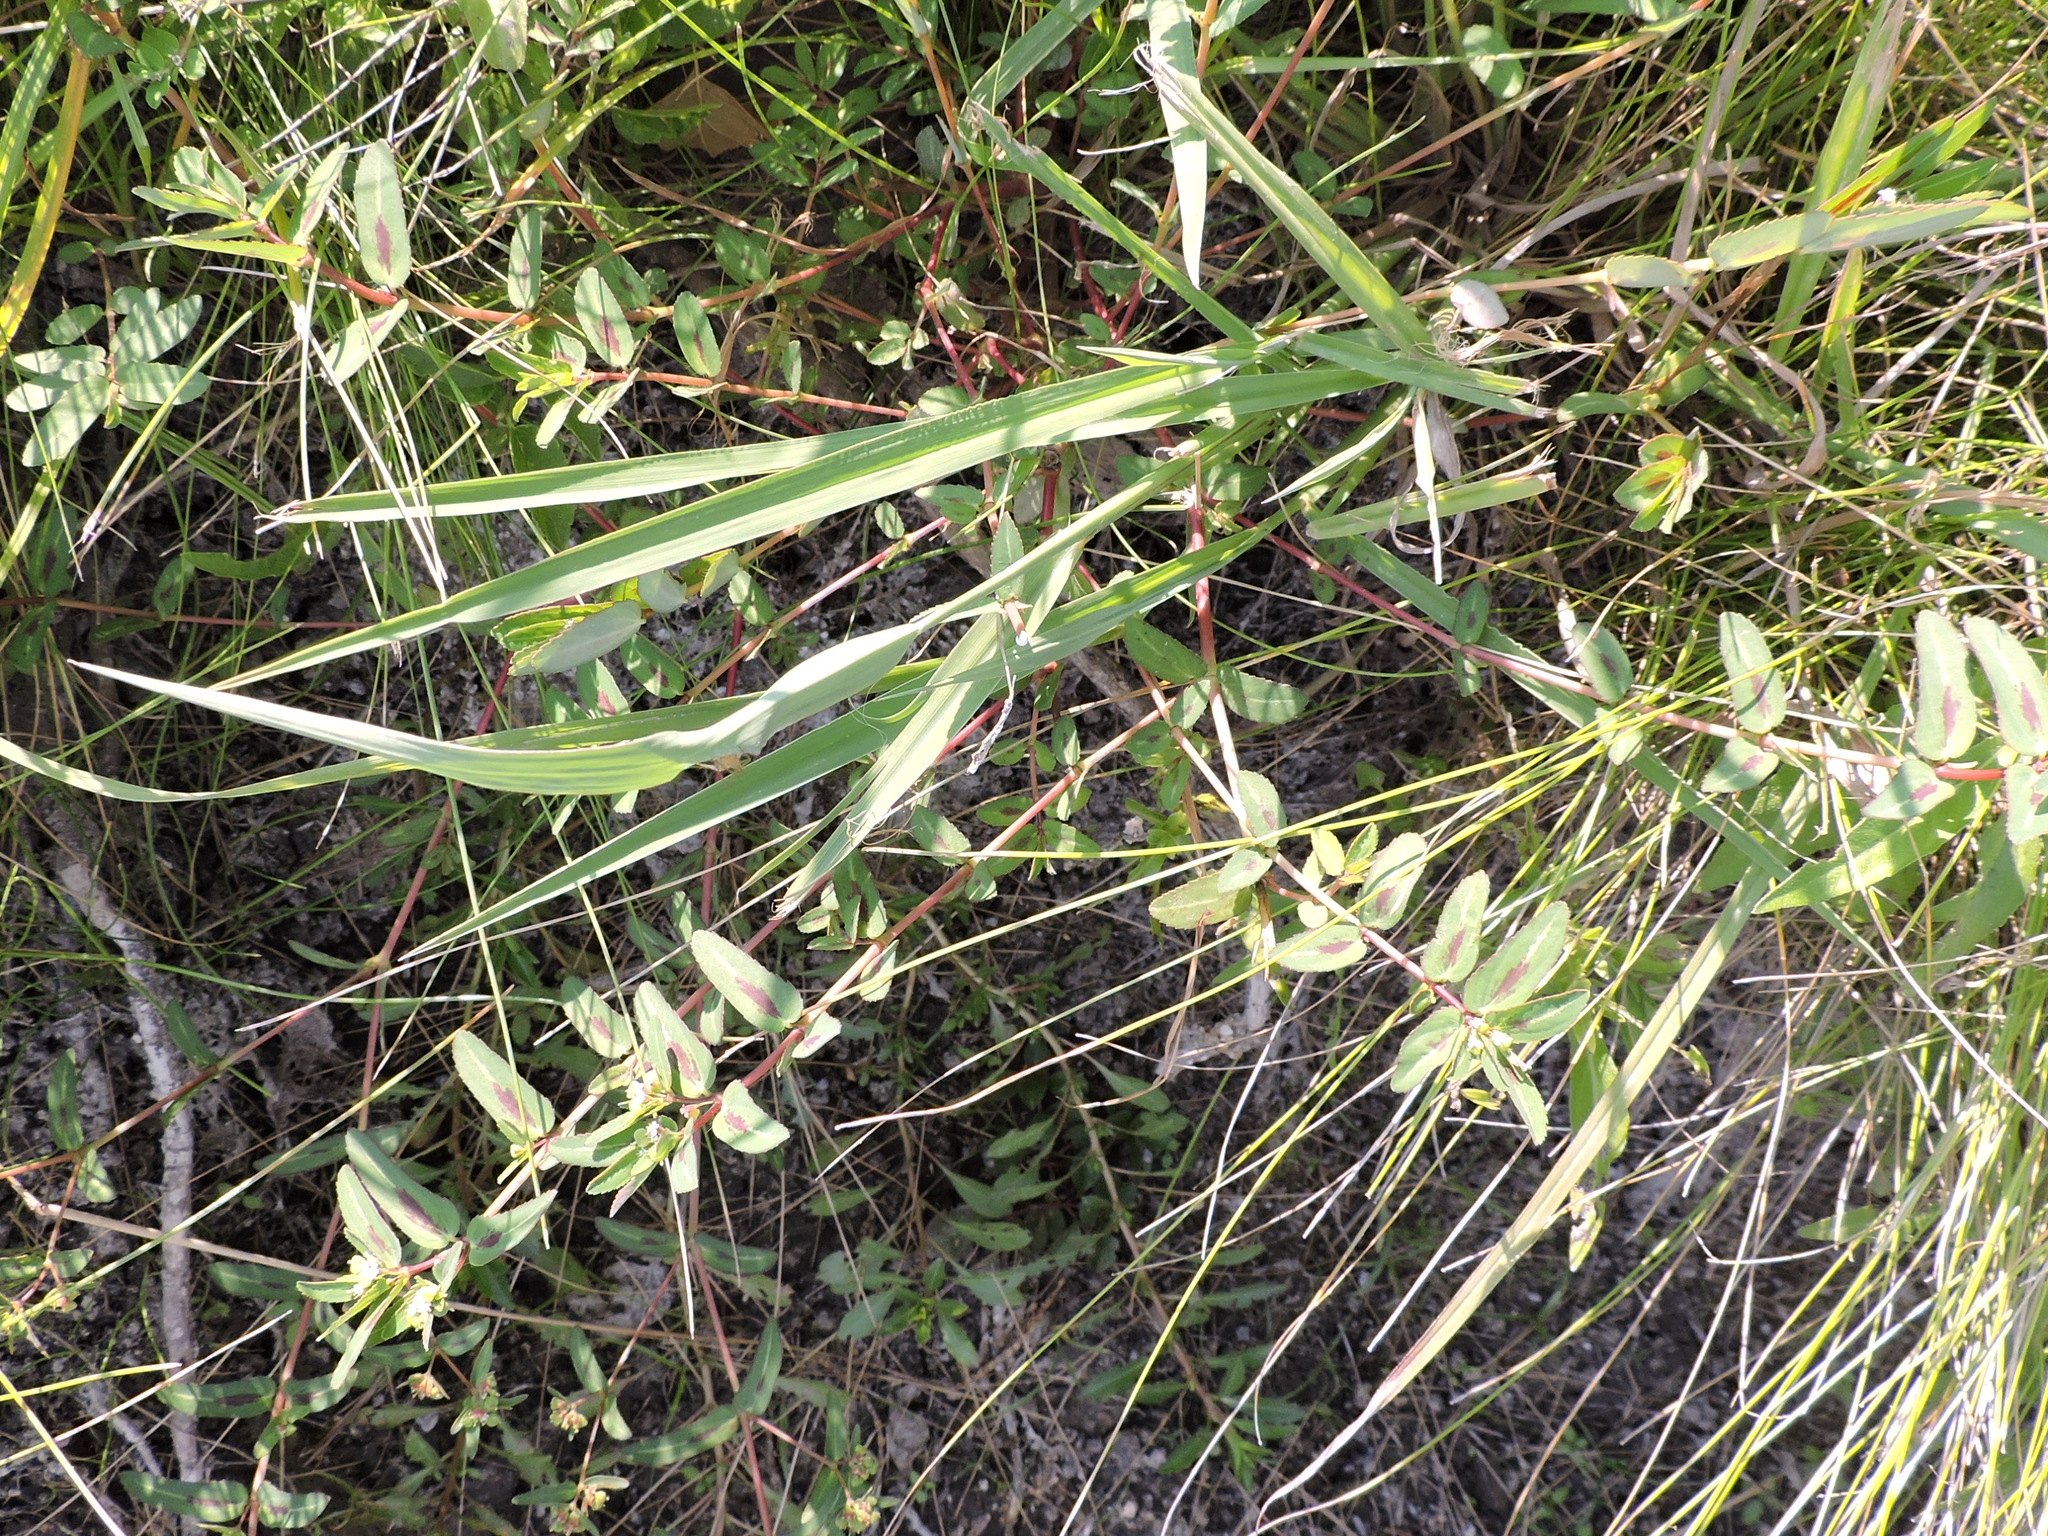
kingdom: Plantae
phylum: Tracheophyta
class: Magnoliopsida
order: Malpighiales
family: Euphorbiaceae
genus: Euphorbia
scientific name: Euphorbia nutans
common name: Eyebane
